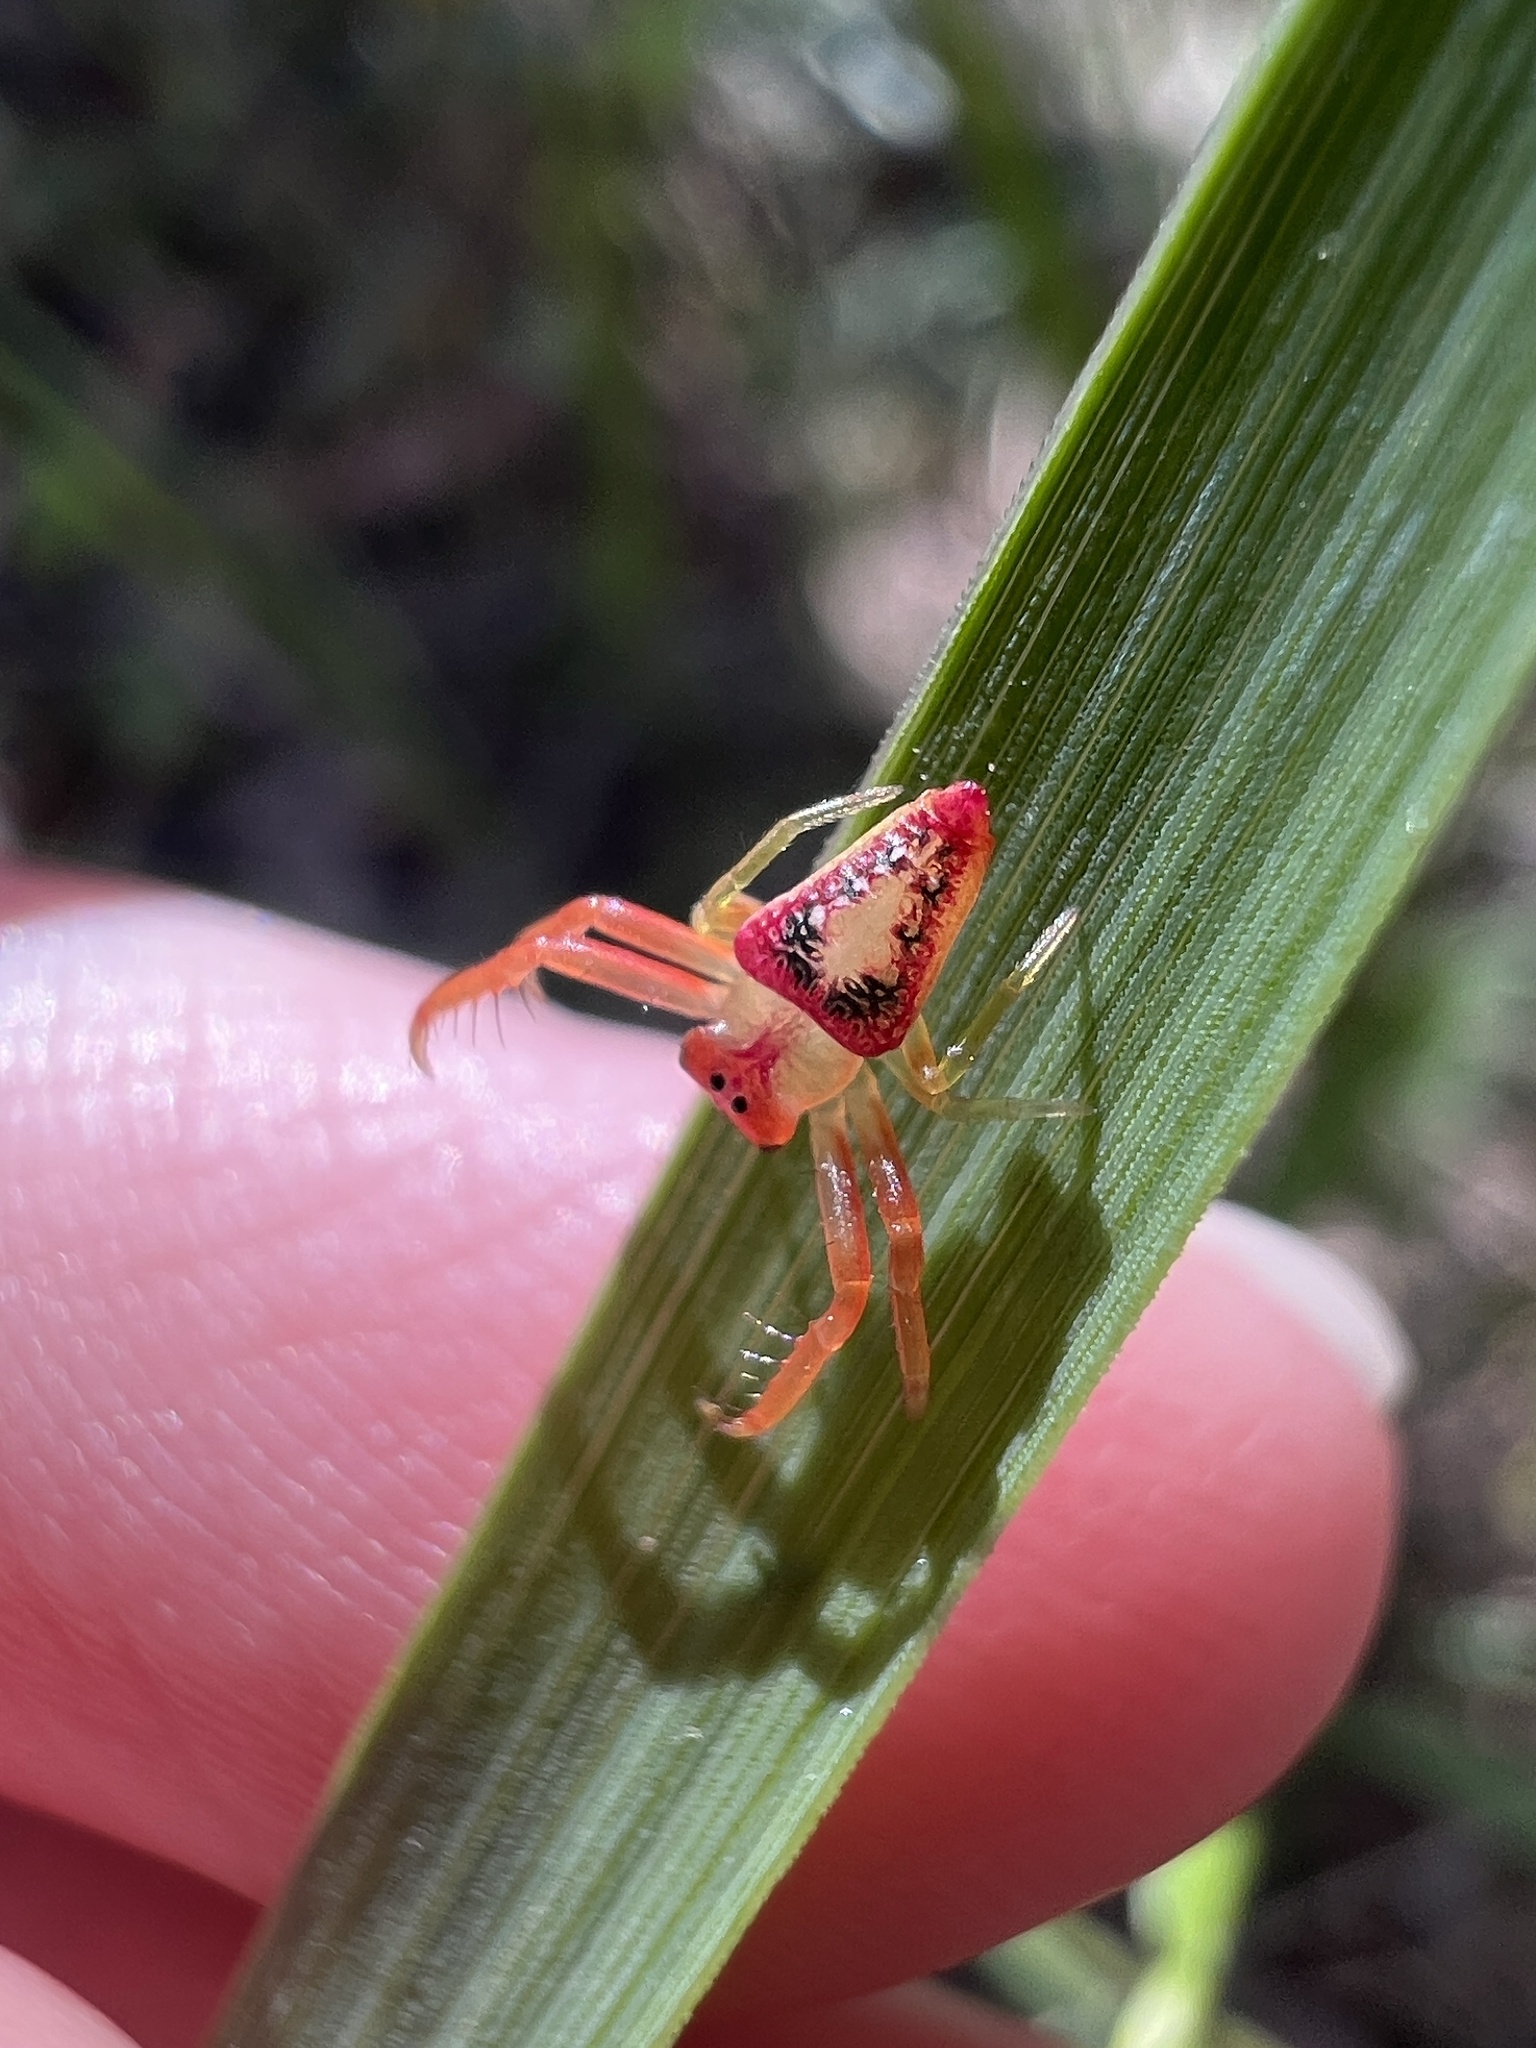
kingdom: Animalia
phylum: Arthropoda
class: Arachnida
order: Araneae
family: Arkyidae
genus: Arkys
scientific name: Arkys walckenaeri
